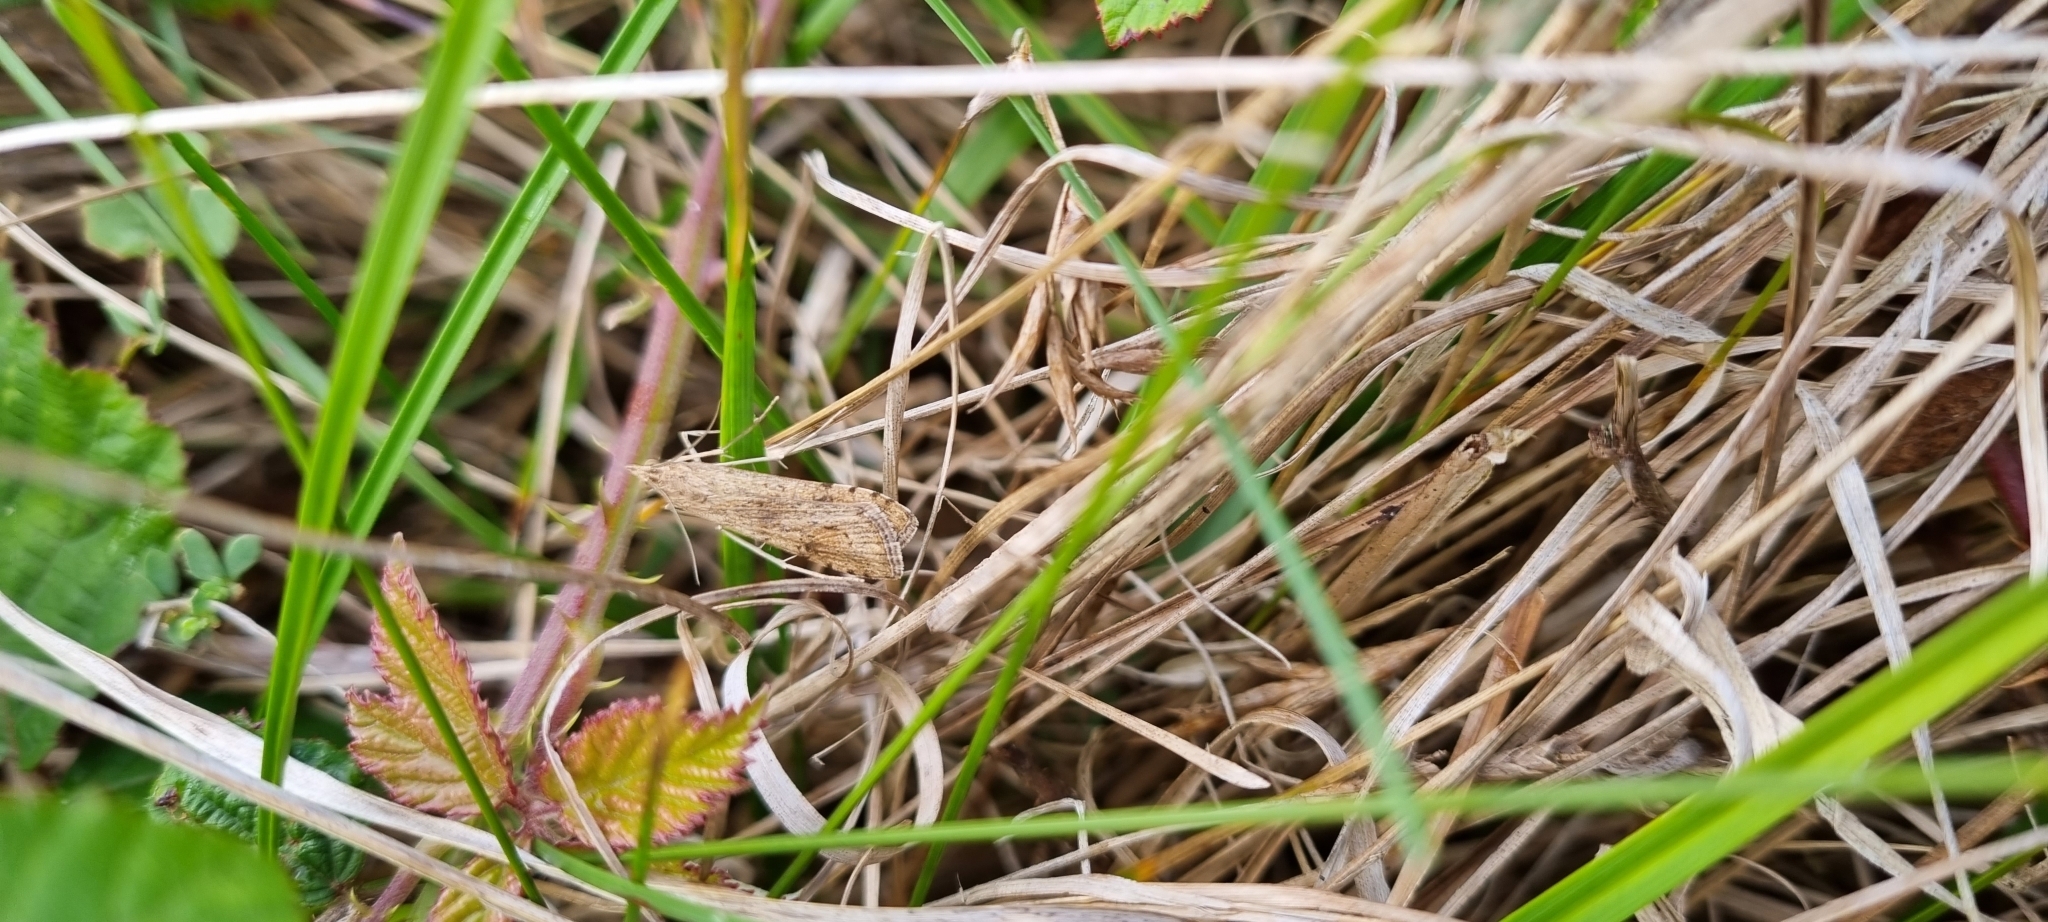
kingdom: Animalia
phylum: Arthropoda
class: Insecta
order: Lepidoptera
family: Crambidae
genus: Nomophila
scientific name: Nomophila noctuella
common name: Rush veneer
